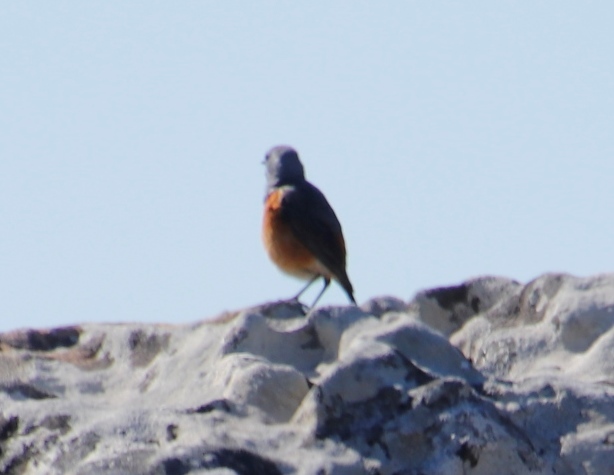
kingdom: Animalia
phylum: Chordata
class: Aves
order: Passeriformes
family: Muscicapidae
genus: Monticola
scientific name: Monticola rupestris
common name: Cape rock thrush
